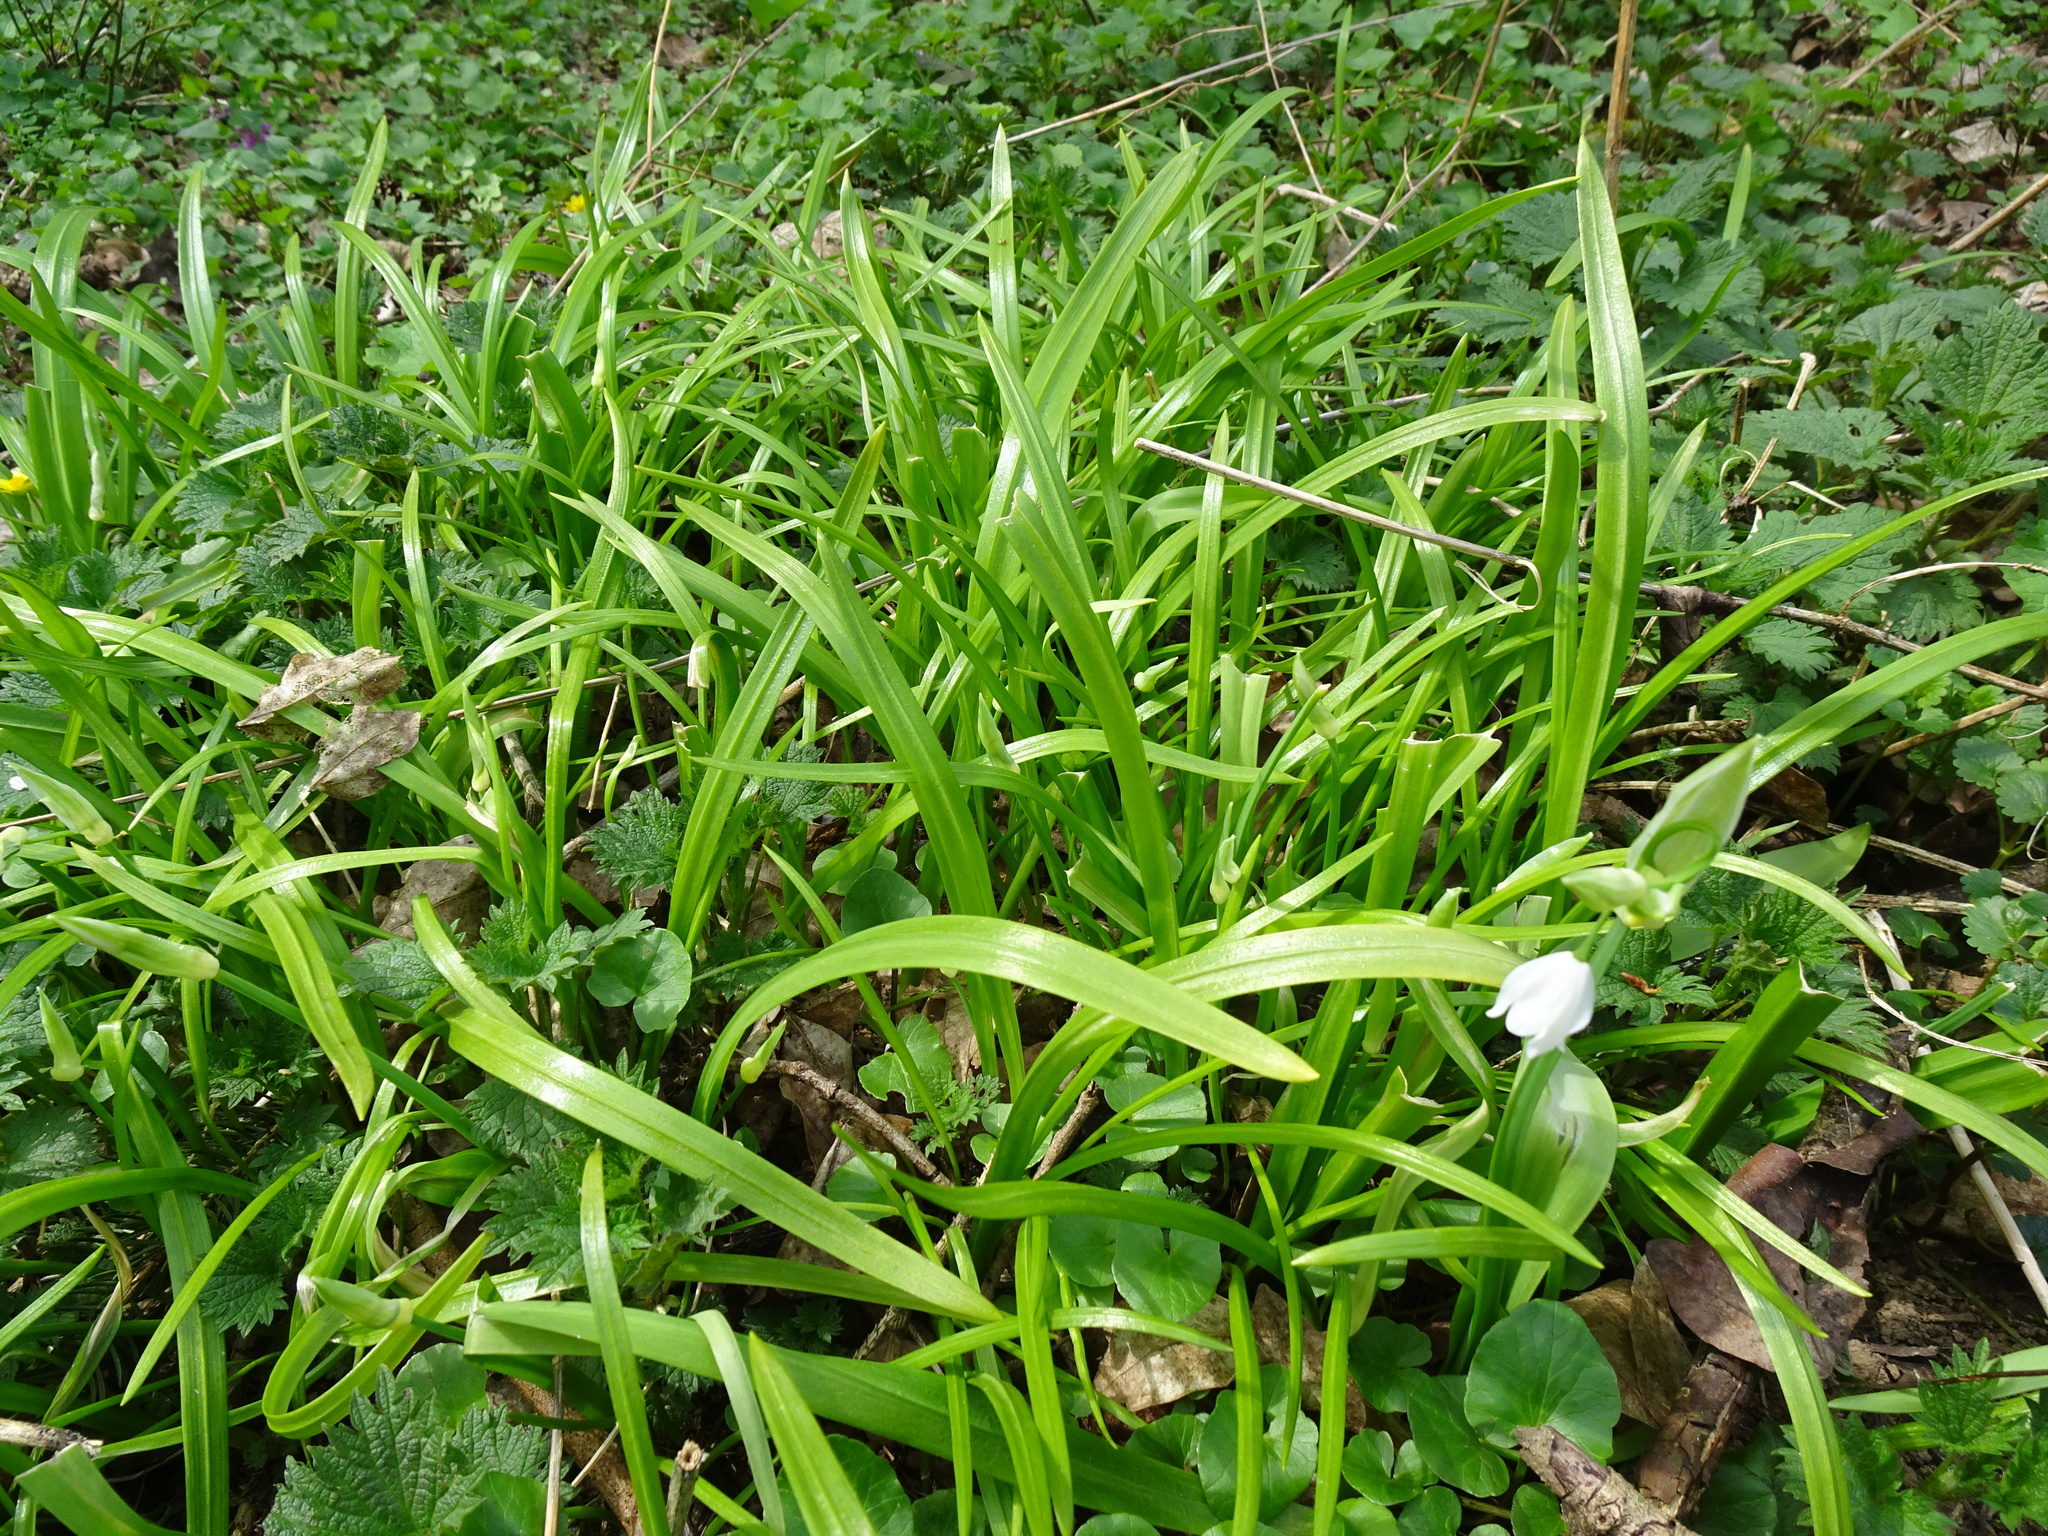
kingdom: Plantae
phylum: Tracheophyta
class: Liliopsida
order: Asparagales
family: Amaryllidaceae
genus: Allium
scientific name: Allium paradoxum
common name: Few-flowered garlic
